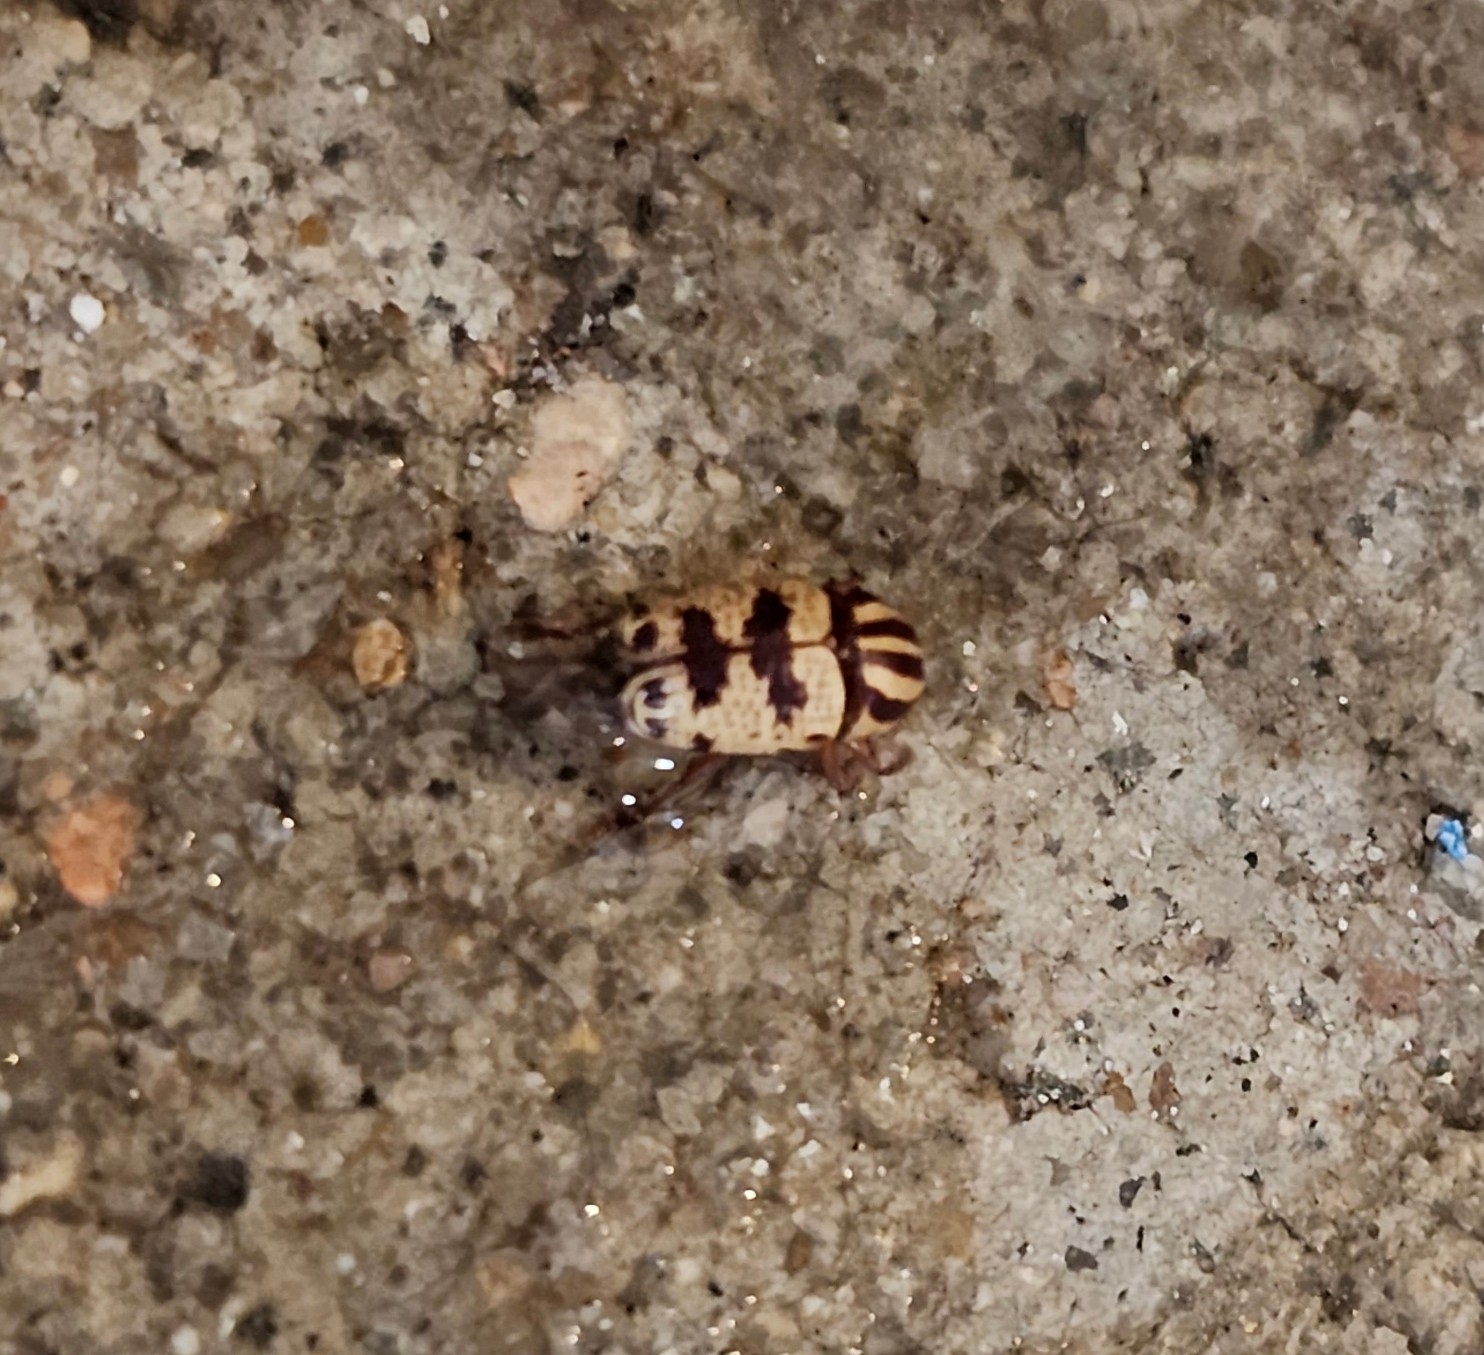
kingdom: Animalia
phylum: Arthropoda
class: Insecta
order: Coleoptera
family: Chrysomelidae
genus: Cryptocephalus
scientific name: Cryptocephalus leucomelas
